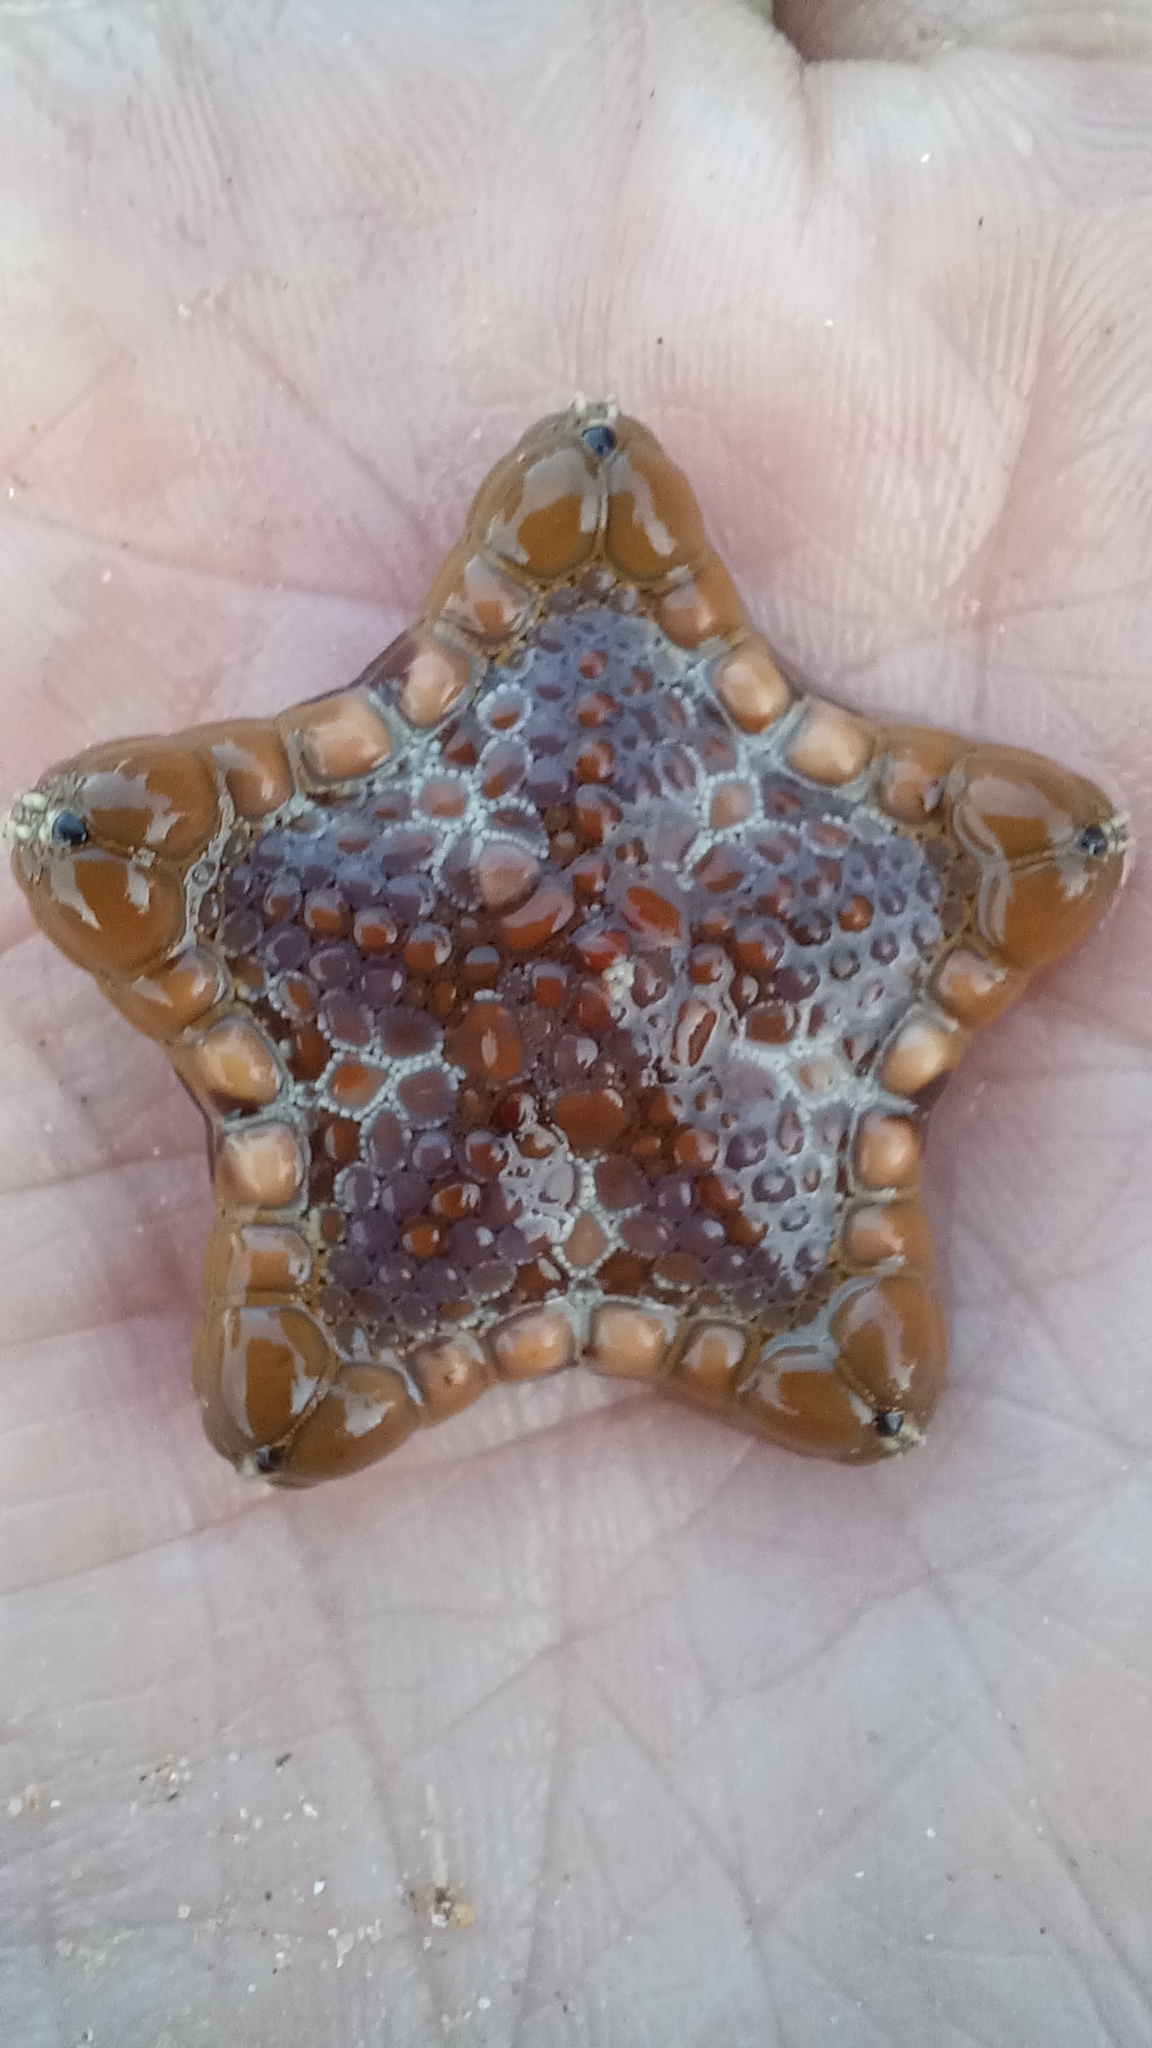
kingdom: Animalia
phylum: Echinodermata
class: Asteroidea
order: Valvatida
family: Goniasteridae
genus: Tosia
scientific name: Tosia australis
